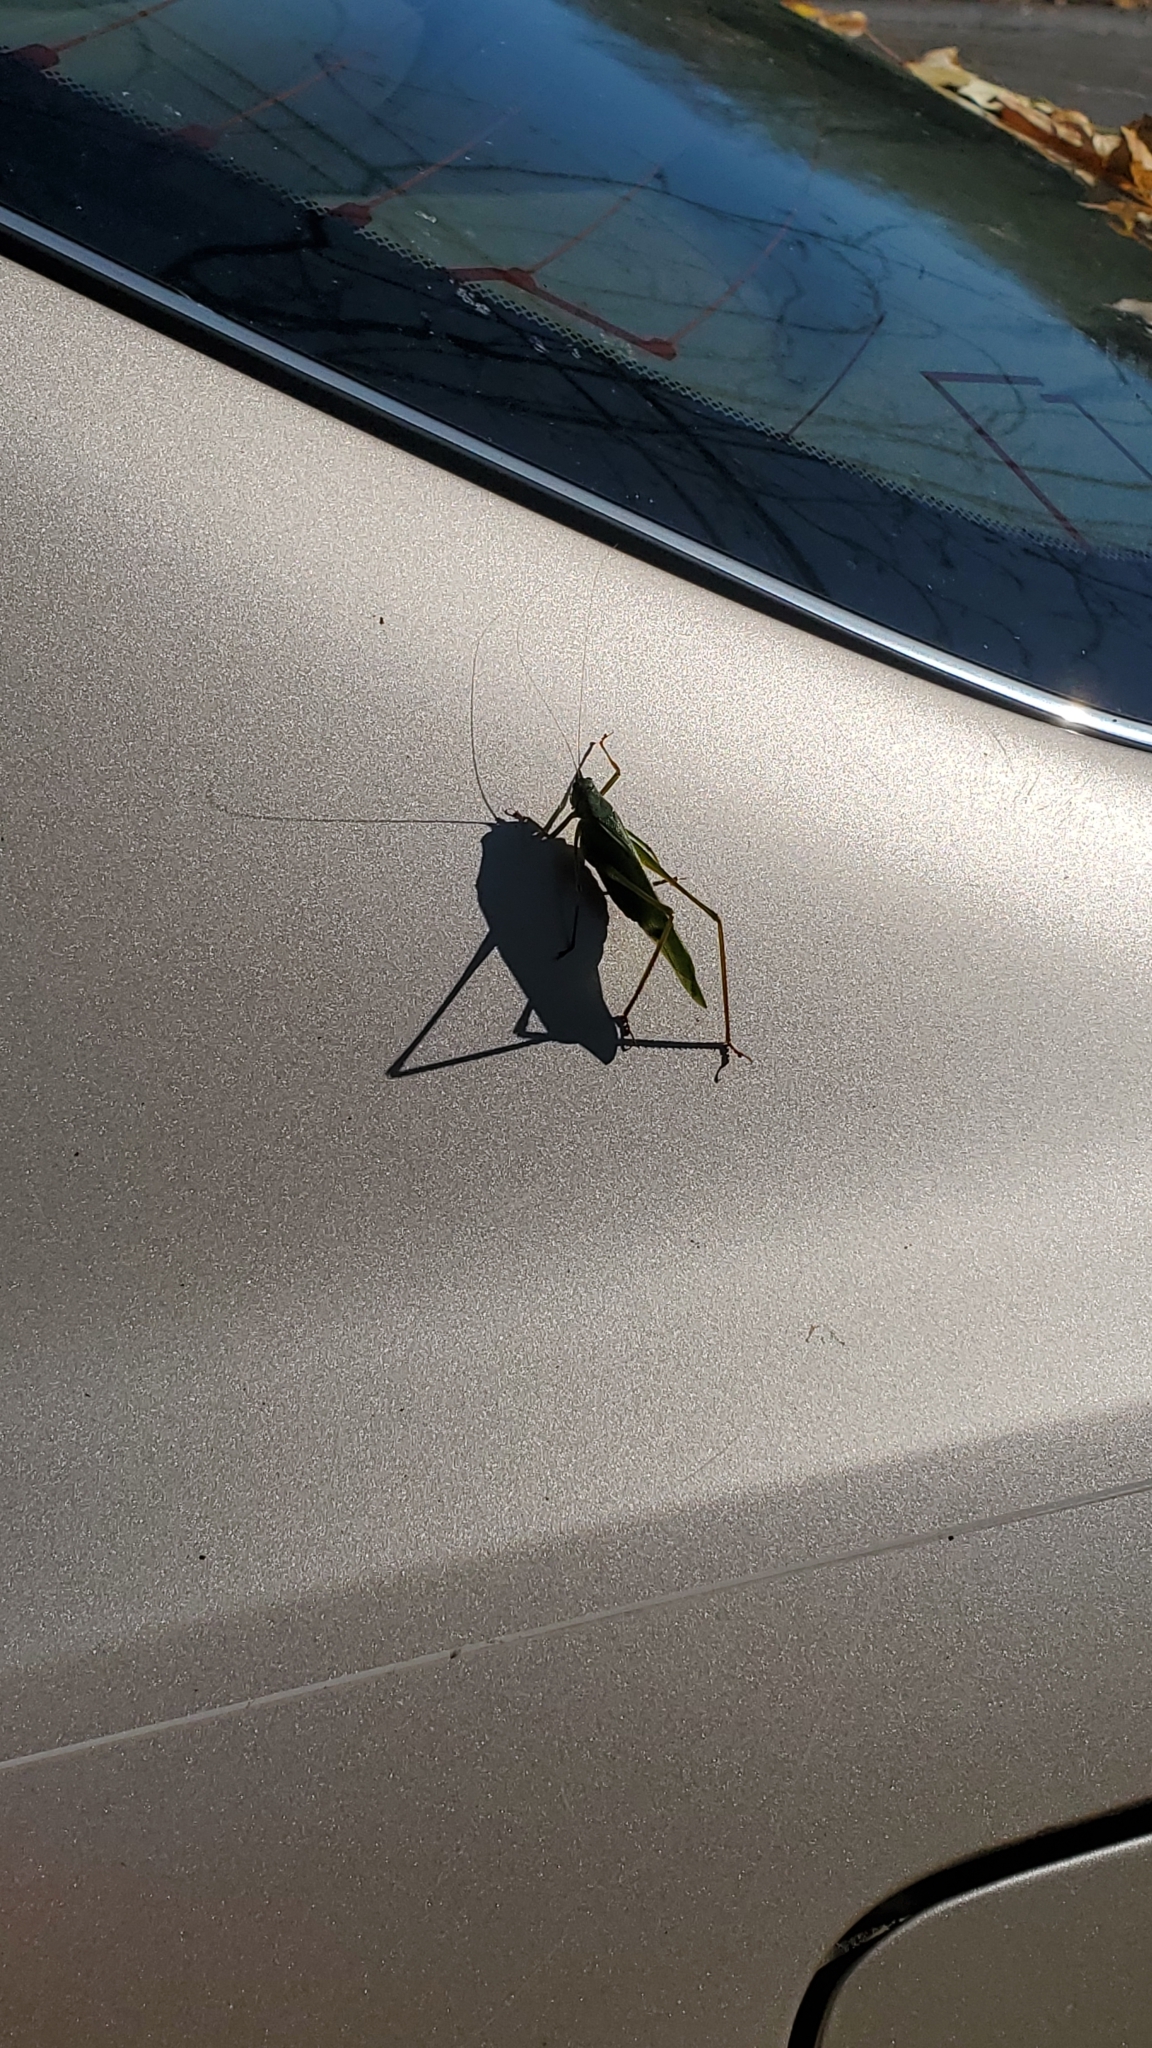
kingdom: Animalia
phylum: Arthropoda
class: Insecta
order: Orthoptera
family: Tettigoniidae
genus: Scudderia
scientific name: Scudderia furcata
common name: Fork-tailed bush katydid
